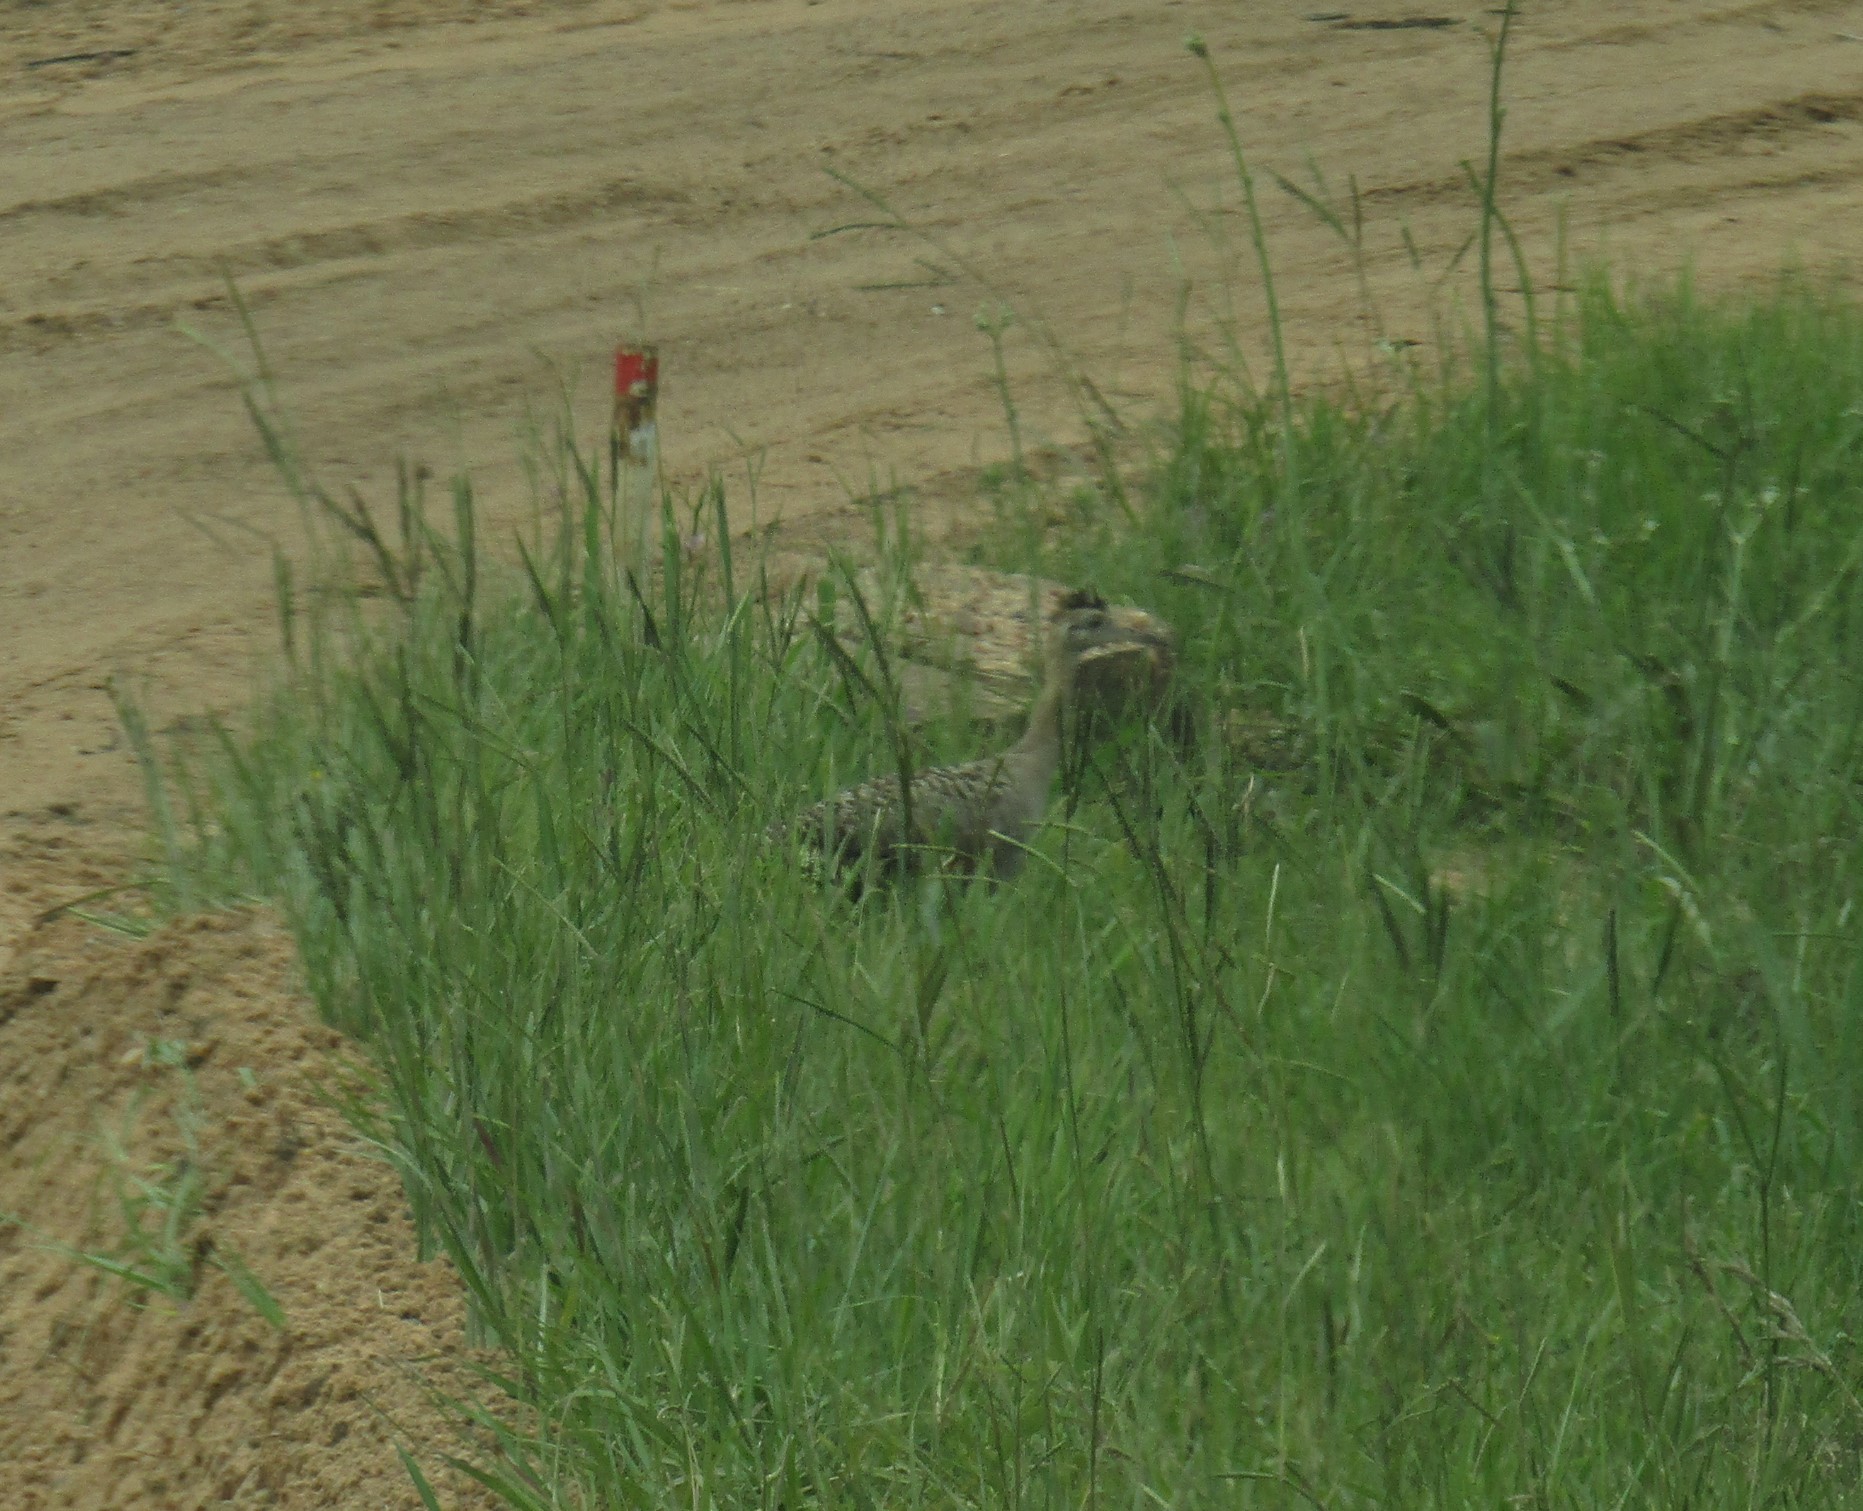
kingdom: Animalia
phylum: Chordata
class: Aves
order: Tinamiformes
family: Tinamidae
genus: Rhynchotus
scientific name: Rhynchotus rufescens
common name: Red-winged tinamou
